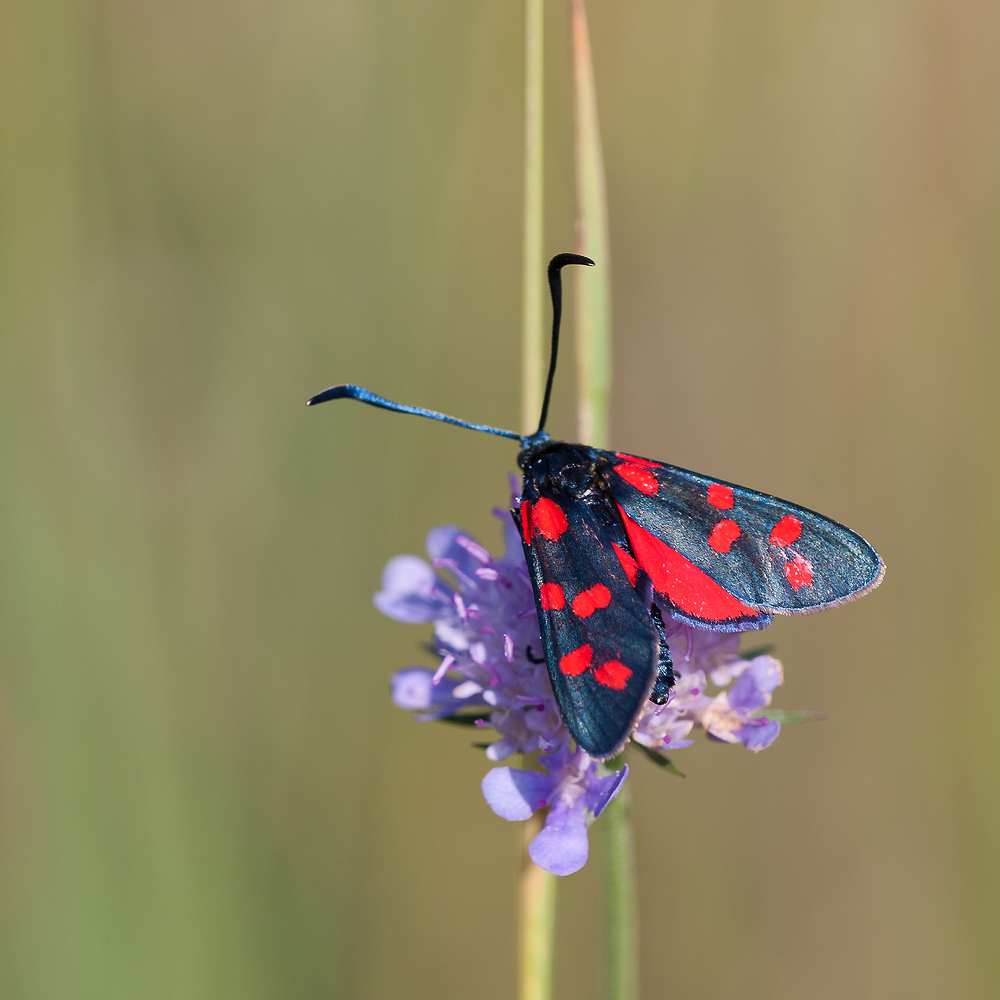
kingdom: Animalia
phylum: Arthropoda
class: Insecta
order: Lepidoptera
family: Zygaenidae
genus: Zygaena
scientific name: Zygaena transalpina
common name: Southern six spot burnet
